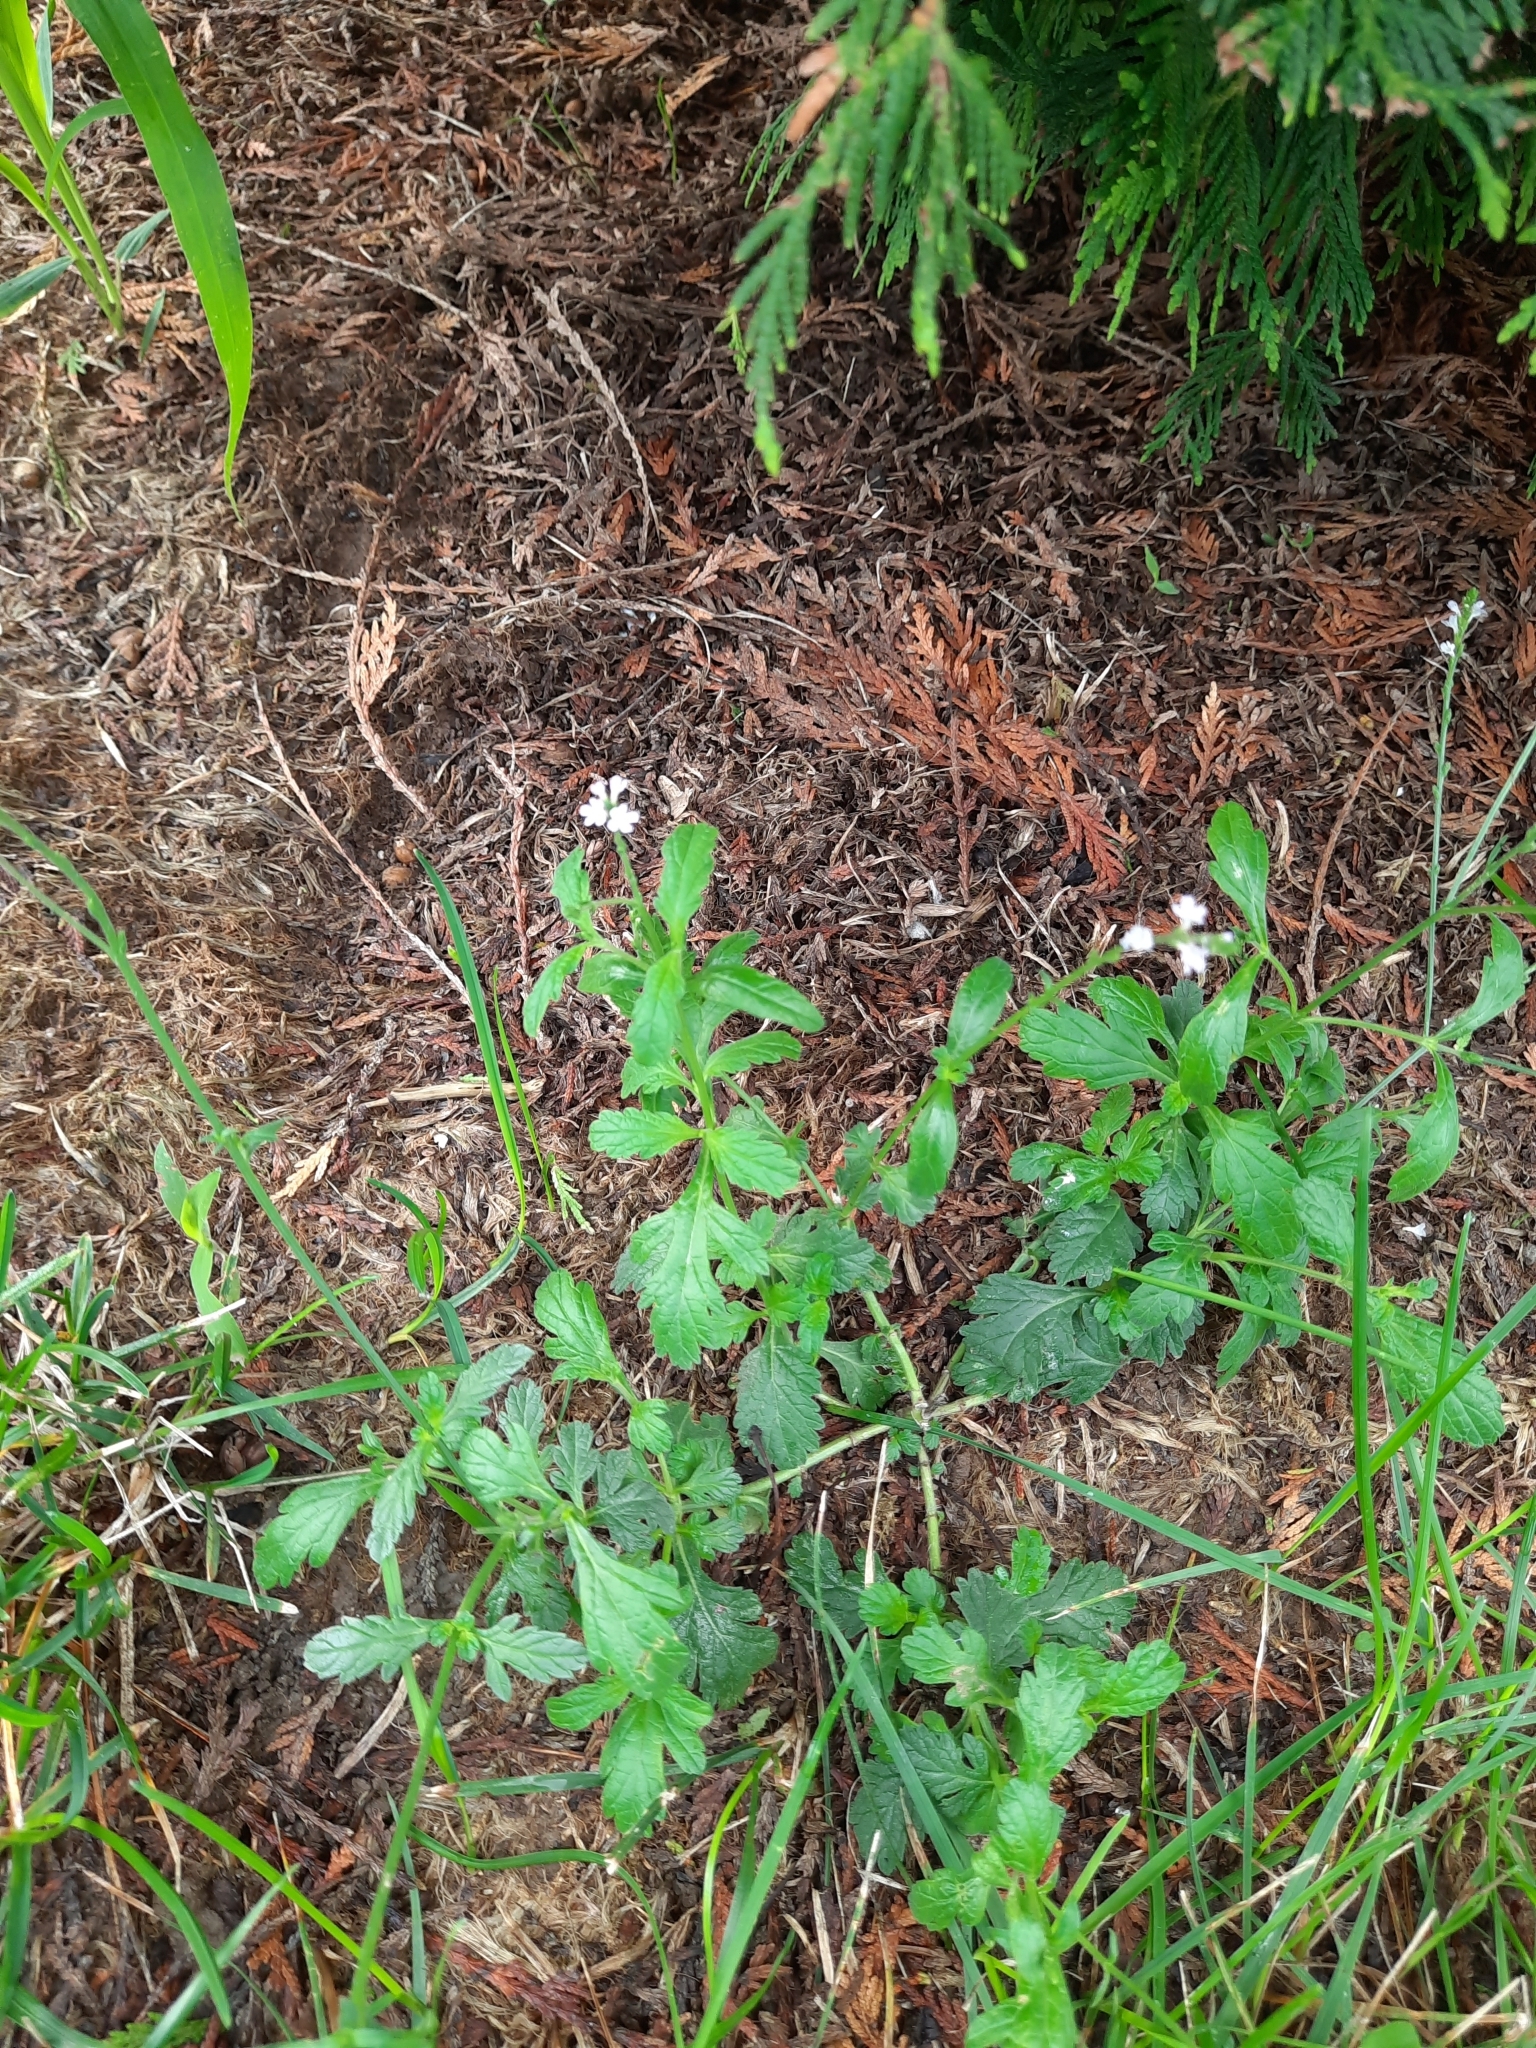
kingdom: Plantae
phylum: Tracheophyta
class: Magnoliopsida
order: Lamiales
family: Verbenaceae
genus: Verbena
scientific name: Verbena officinalis
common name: Vervain
